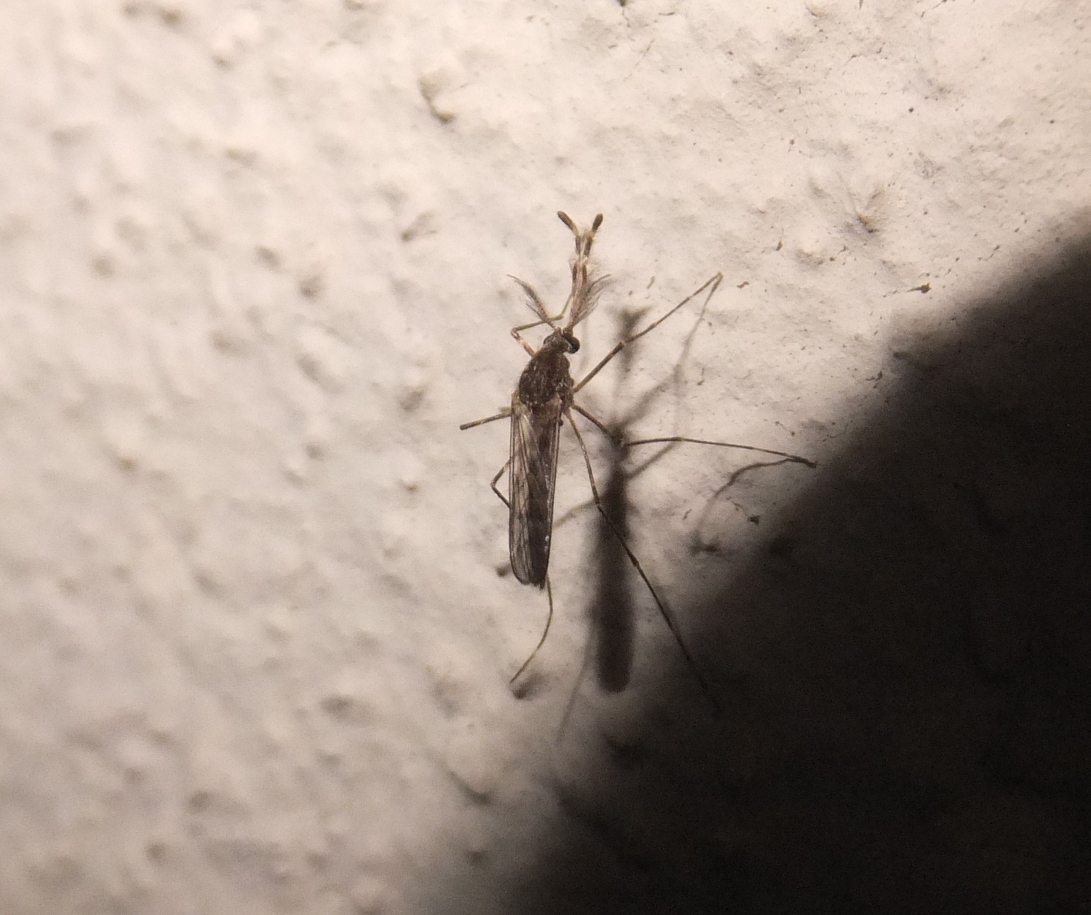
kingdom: Animalia
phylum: Arthropoda
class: Insecta
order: Diptera
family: Culicidae
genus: Culiseta
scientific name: Culiseta annulata
